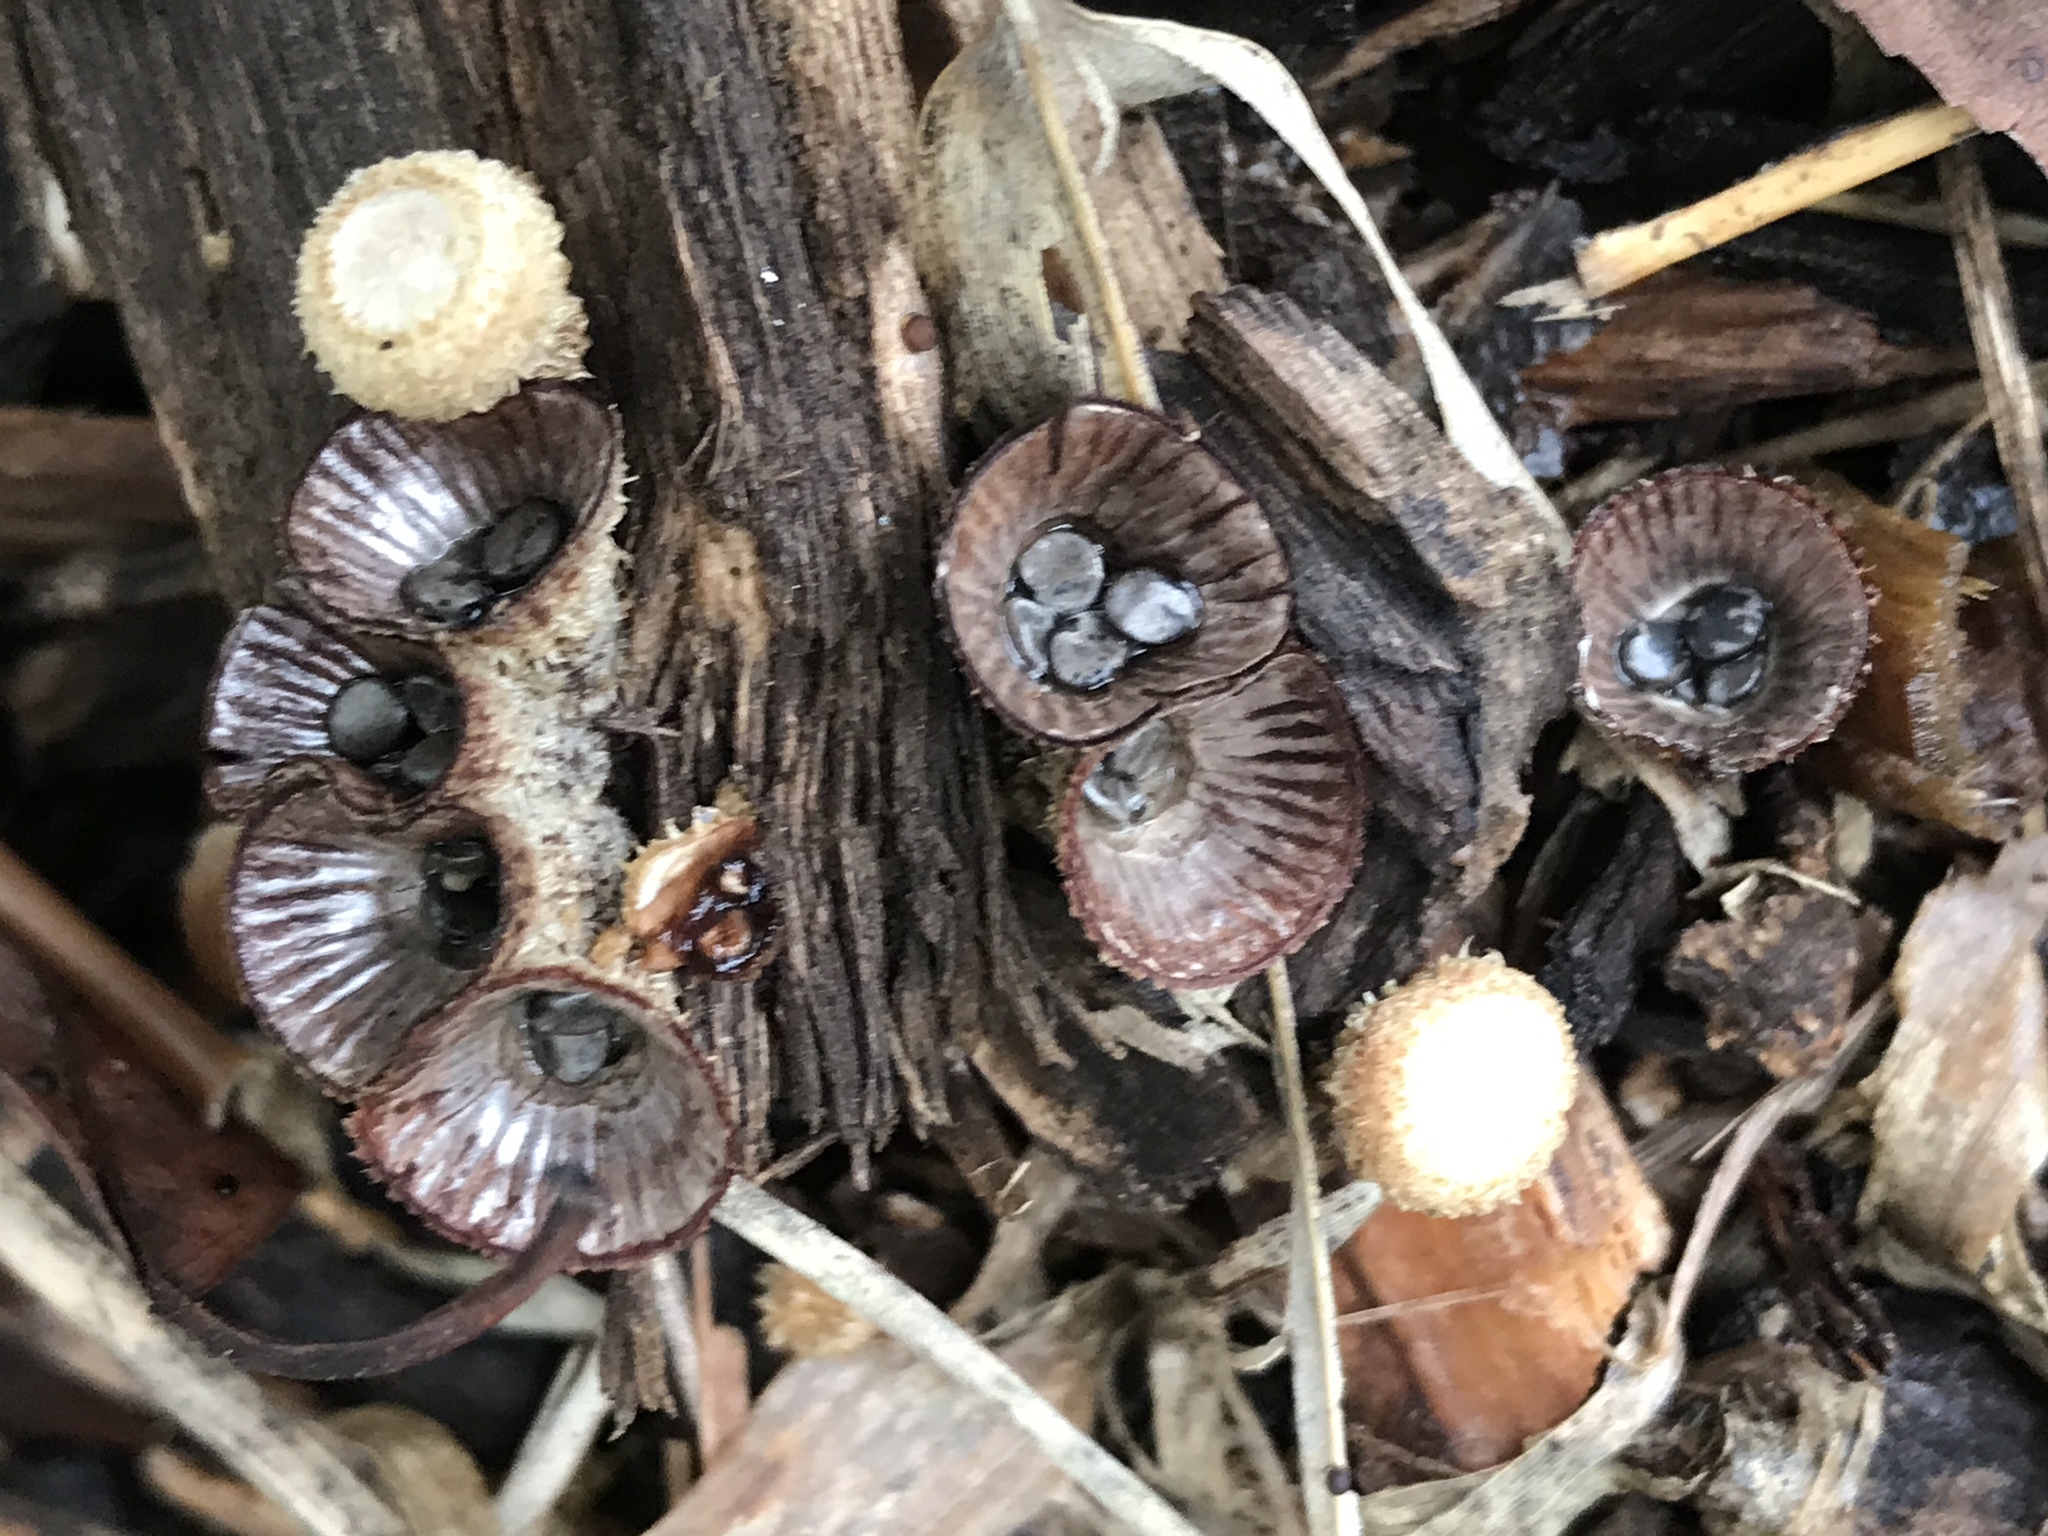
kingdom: Fungi
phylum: Basidiomycota
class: Agaricomycetes
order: Agaricales
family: Agaricaceae
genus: Cyathus
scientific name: Cyathus striatus
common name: Fluted bird's nest
